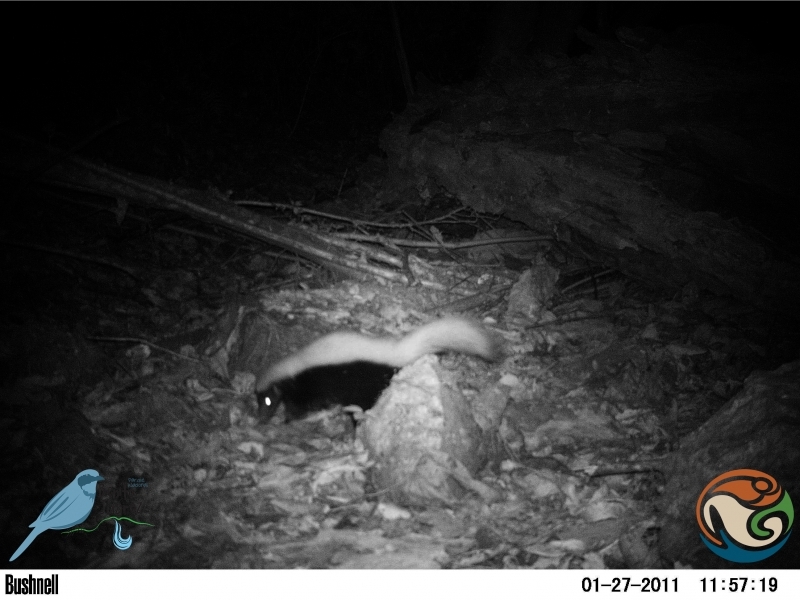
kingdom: Animalia
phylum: Chordata
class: Mammalia
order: Carnivora
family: Mephitidae
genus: Conepatus
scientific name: Conepatus leuconotus
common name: Eastern hog-nosed skunk
